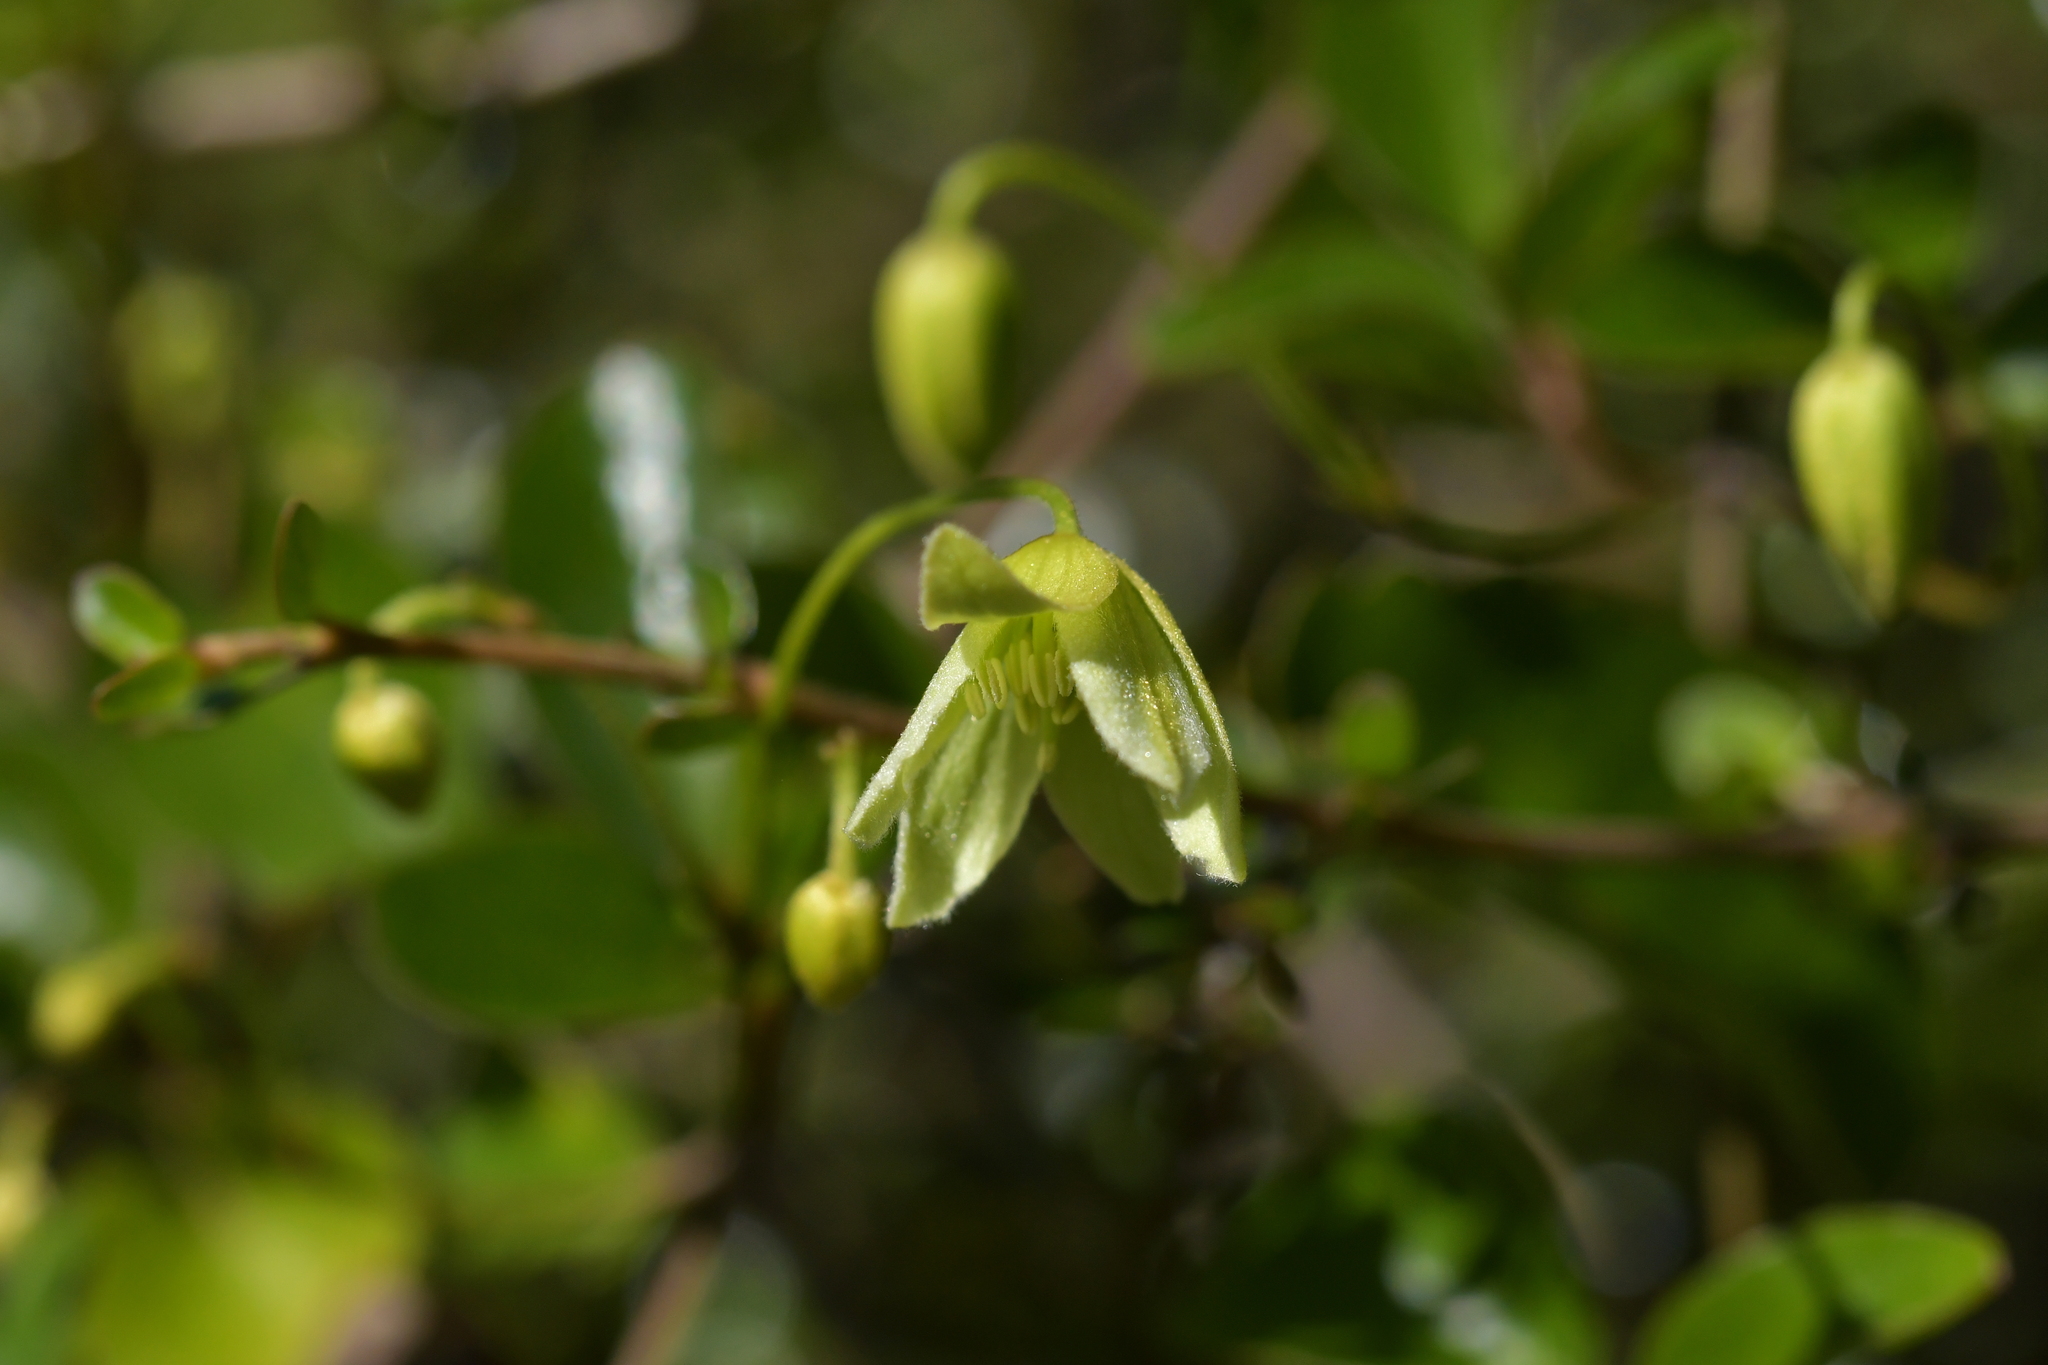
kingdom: Plantae
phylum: Tracheophyta
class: Magnoliopsida
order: Ranunculales
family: Ranunculaceae
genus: Clematis
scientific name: Clematis forsteri
